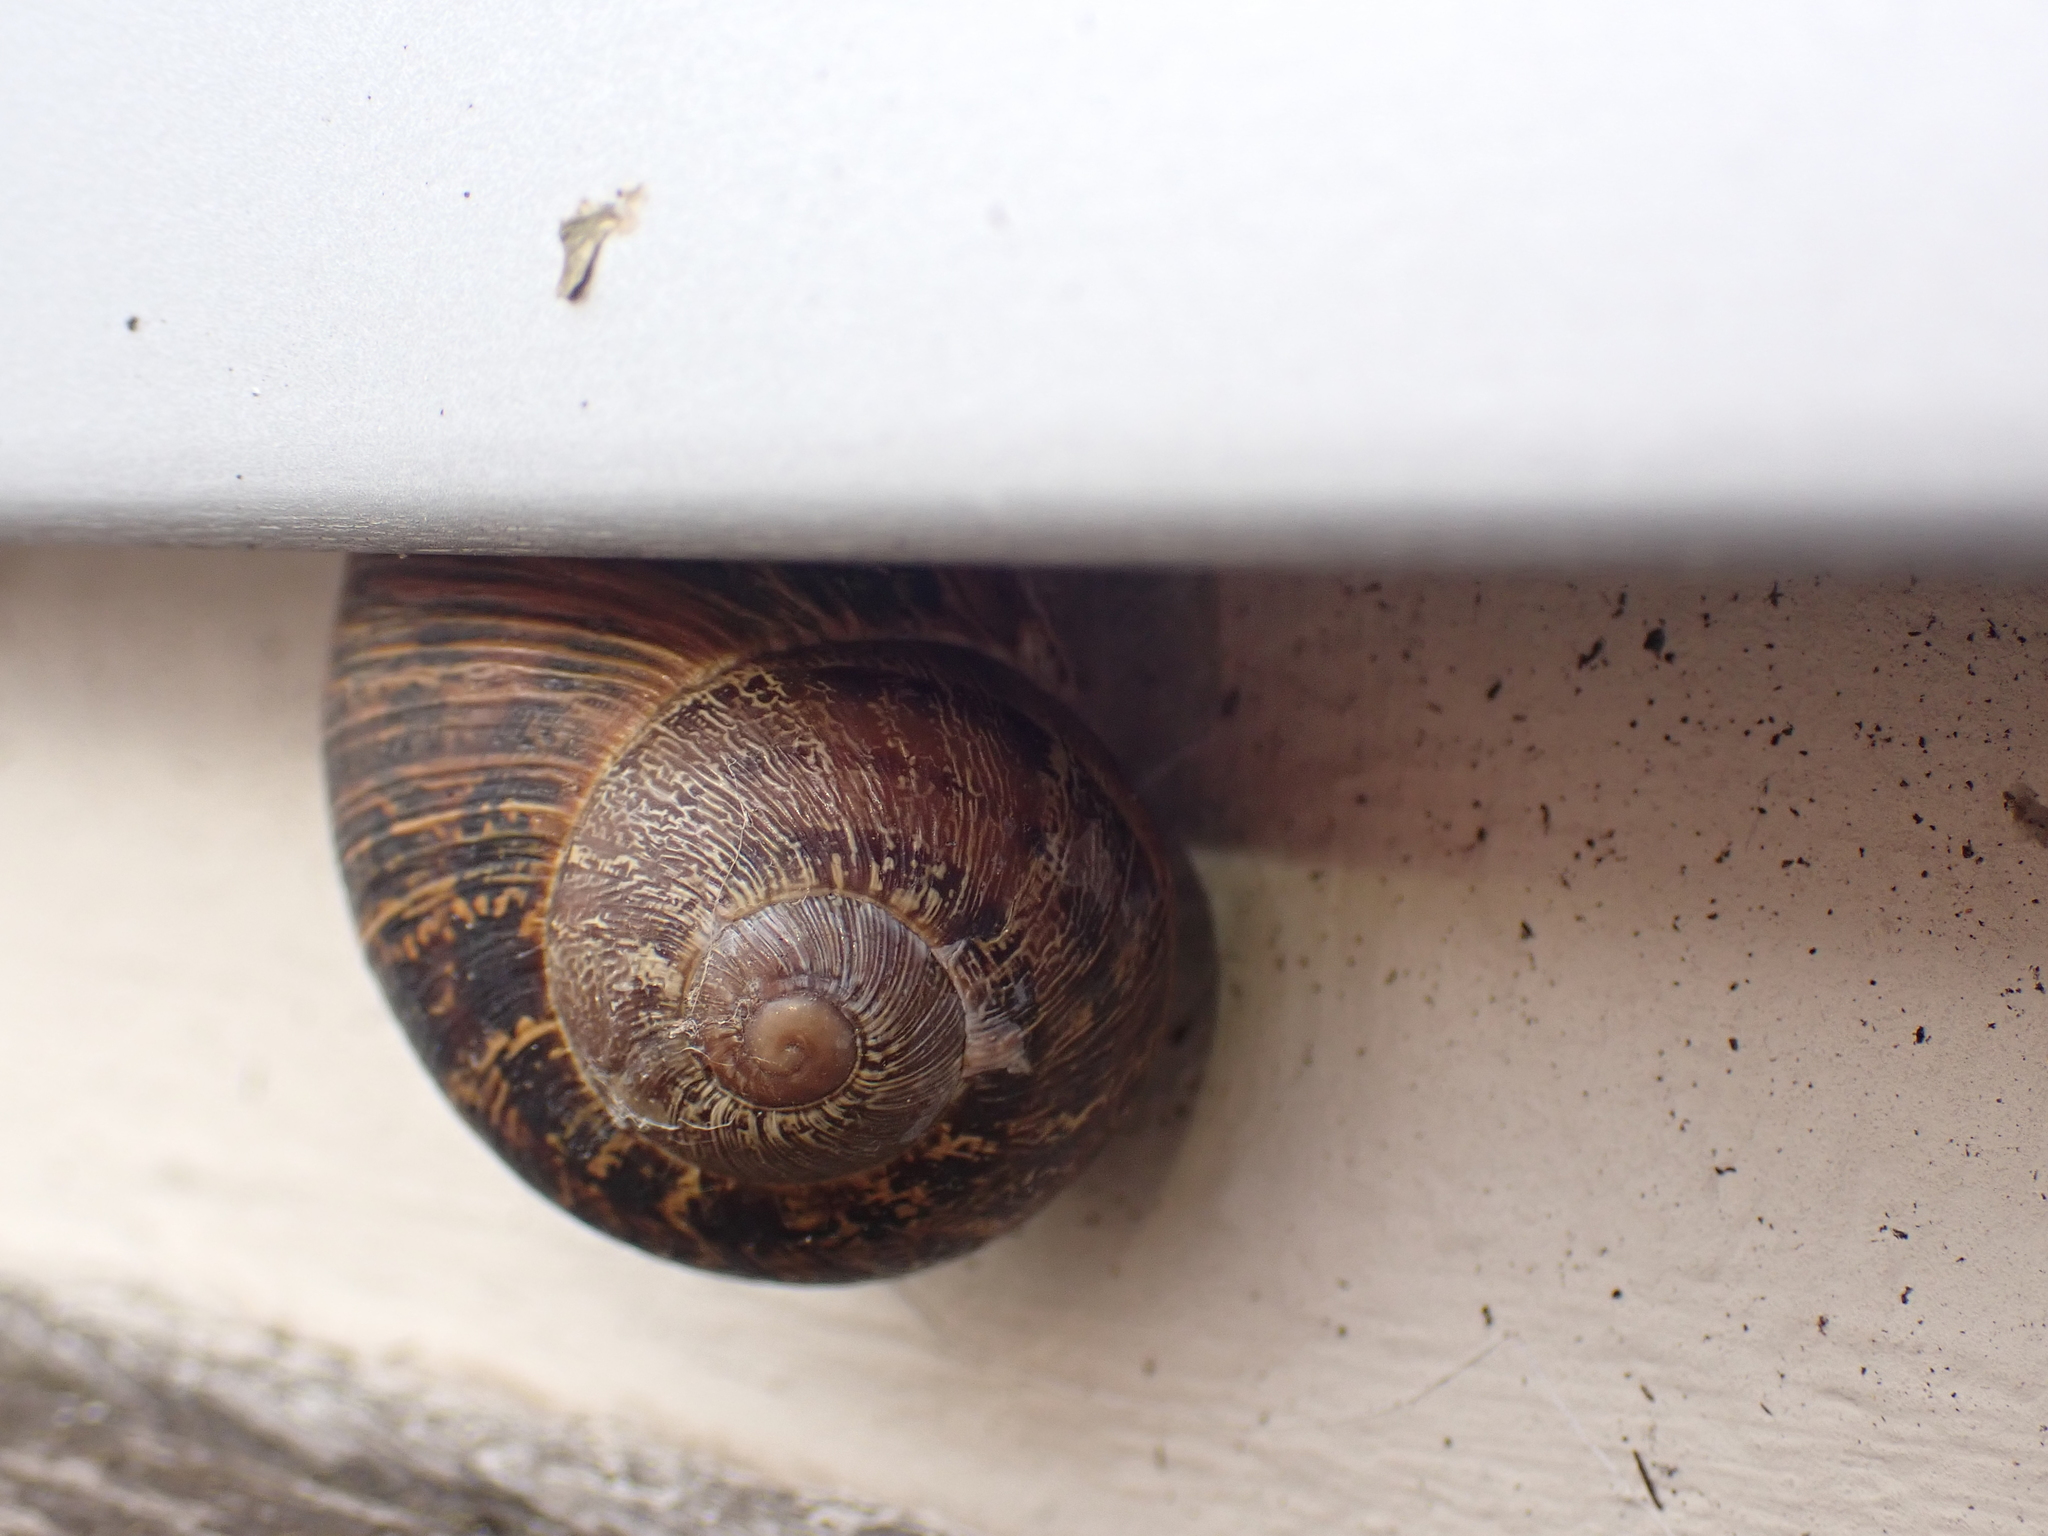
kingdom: Animalia
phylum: Mollusca
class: Gastropoda
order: Stylommatophora
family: Helicidae
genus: Cornu
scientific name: Cornu aspersum
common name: Brown garden snail
